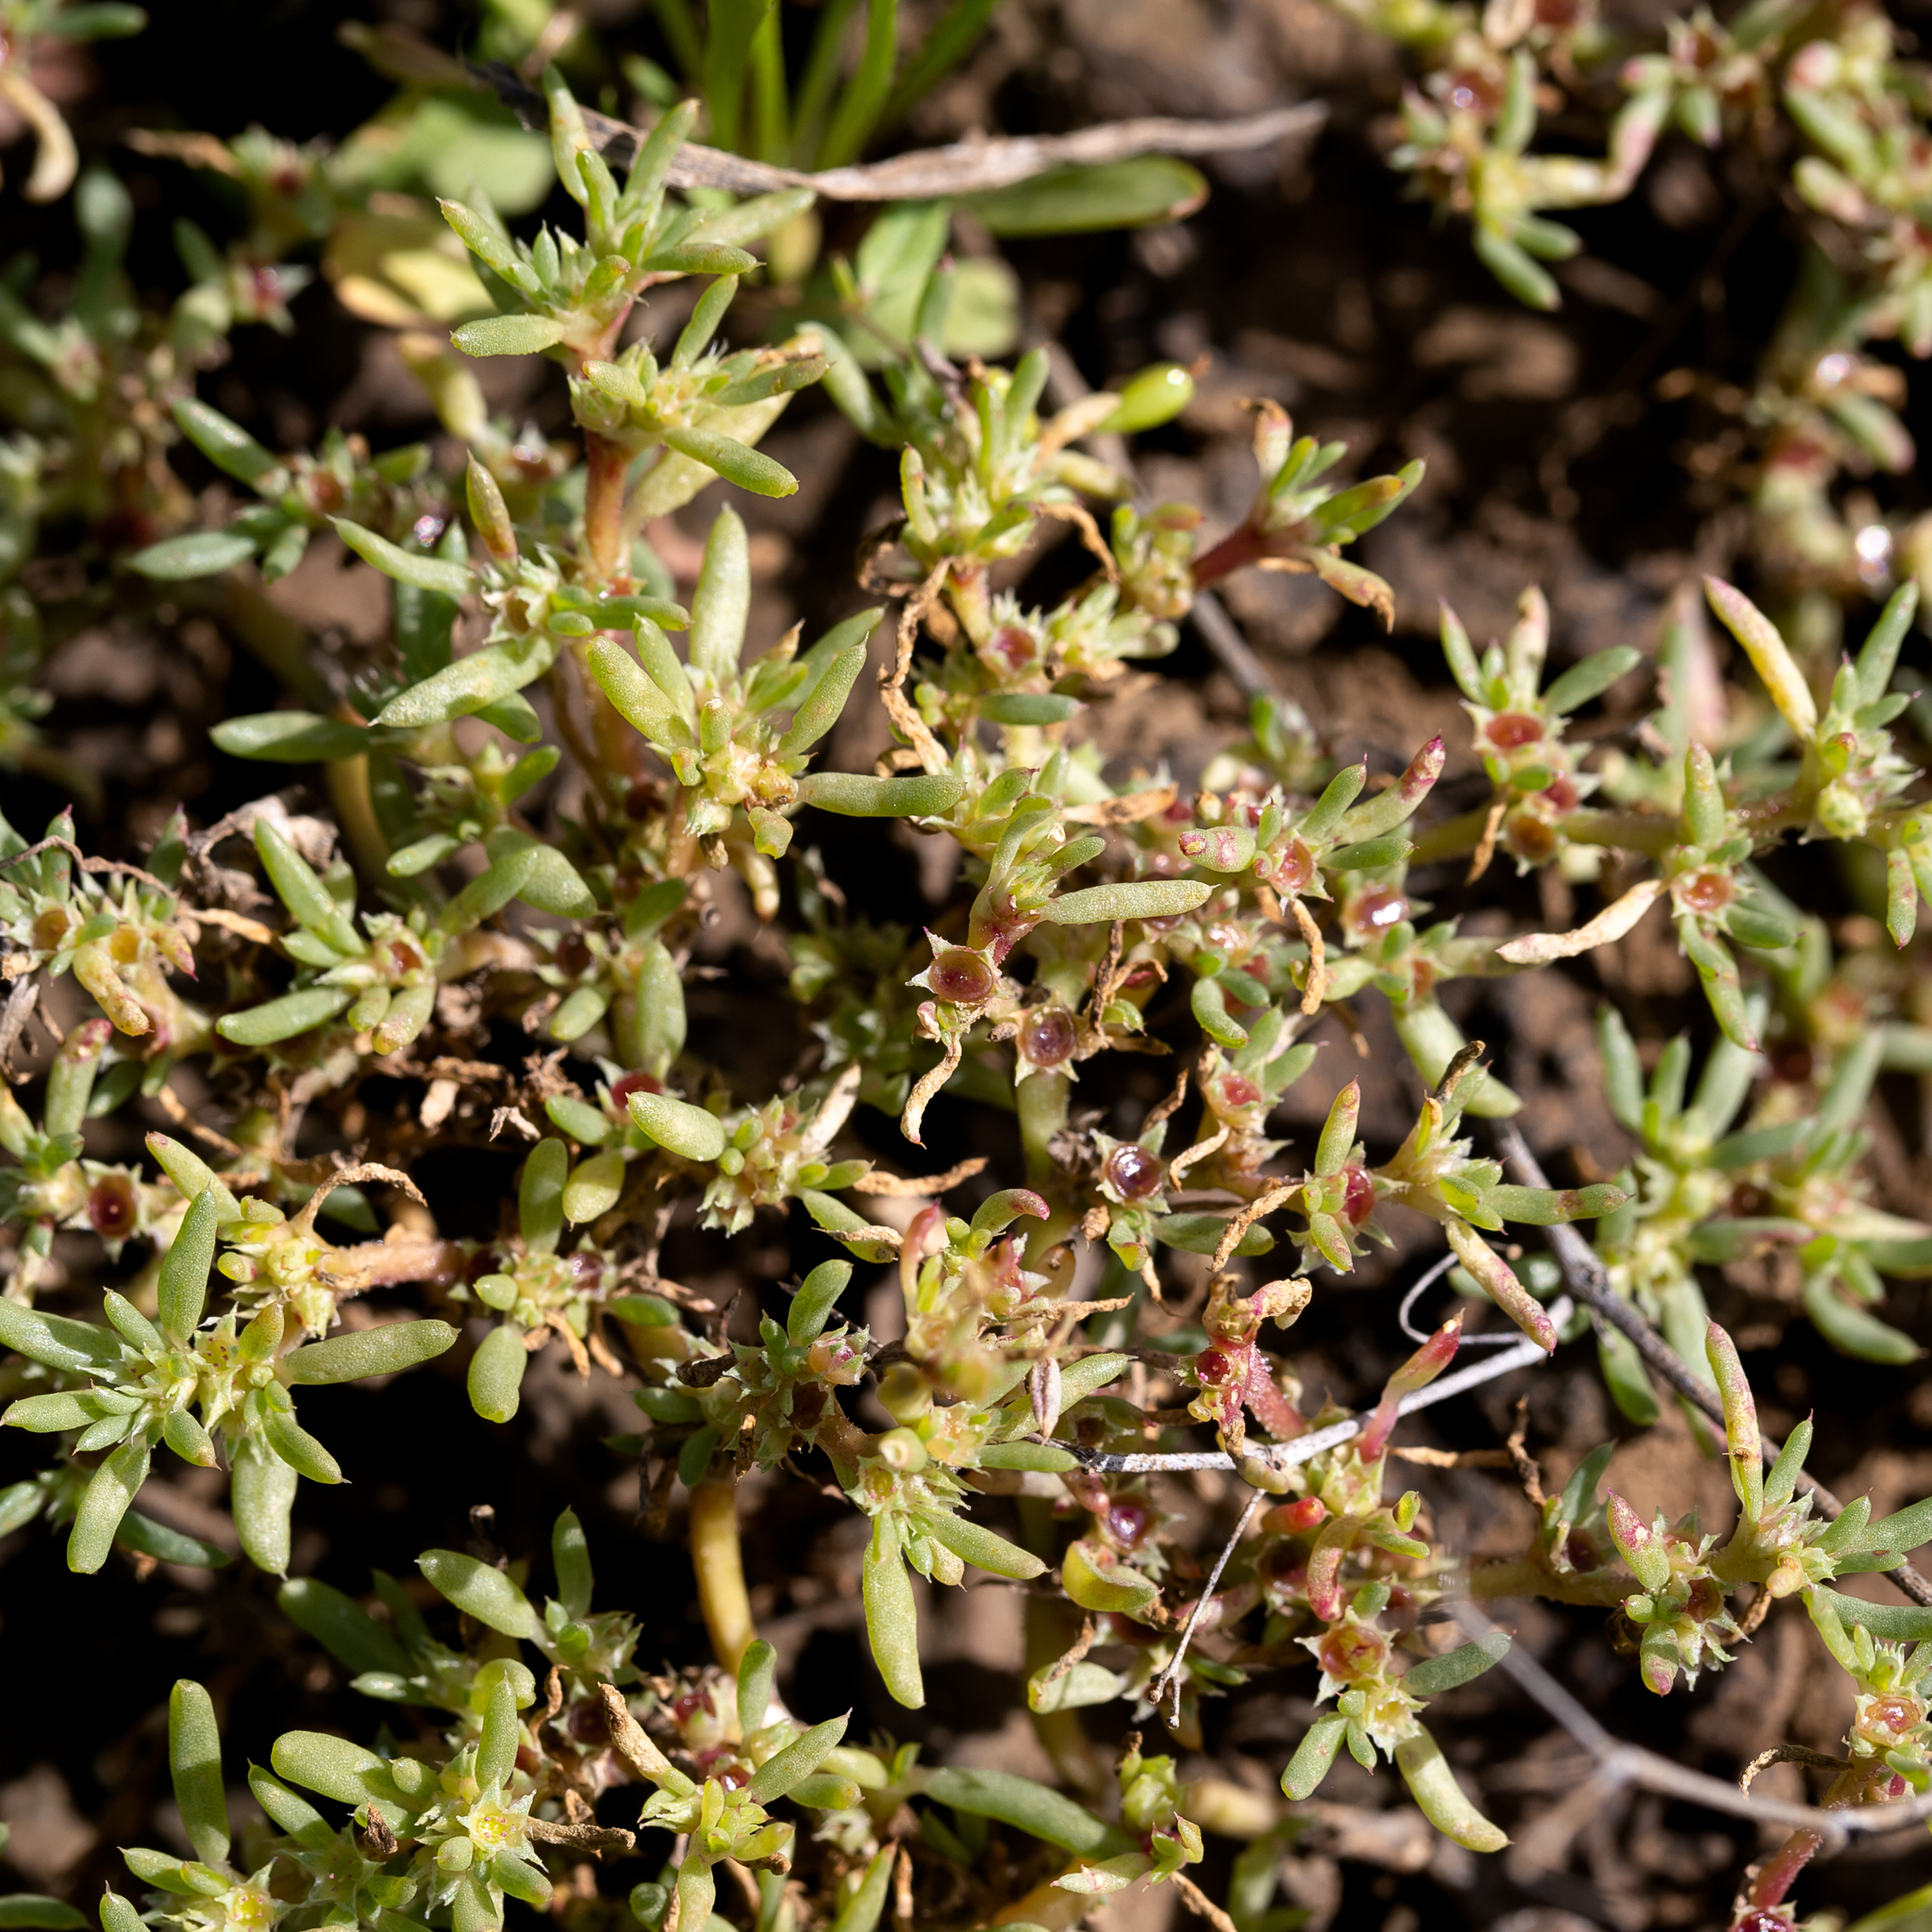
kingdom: Plantae
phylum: Tracheophyta
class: Magnoliopsida
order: Caryophyllales
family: Aizoaceae
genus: Trianthema
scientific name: Trianthema triquetrum
